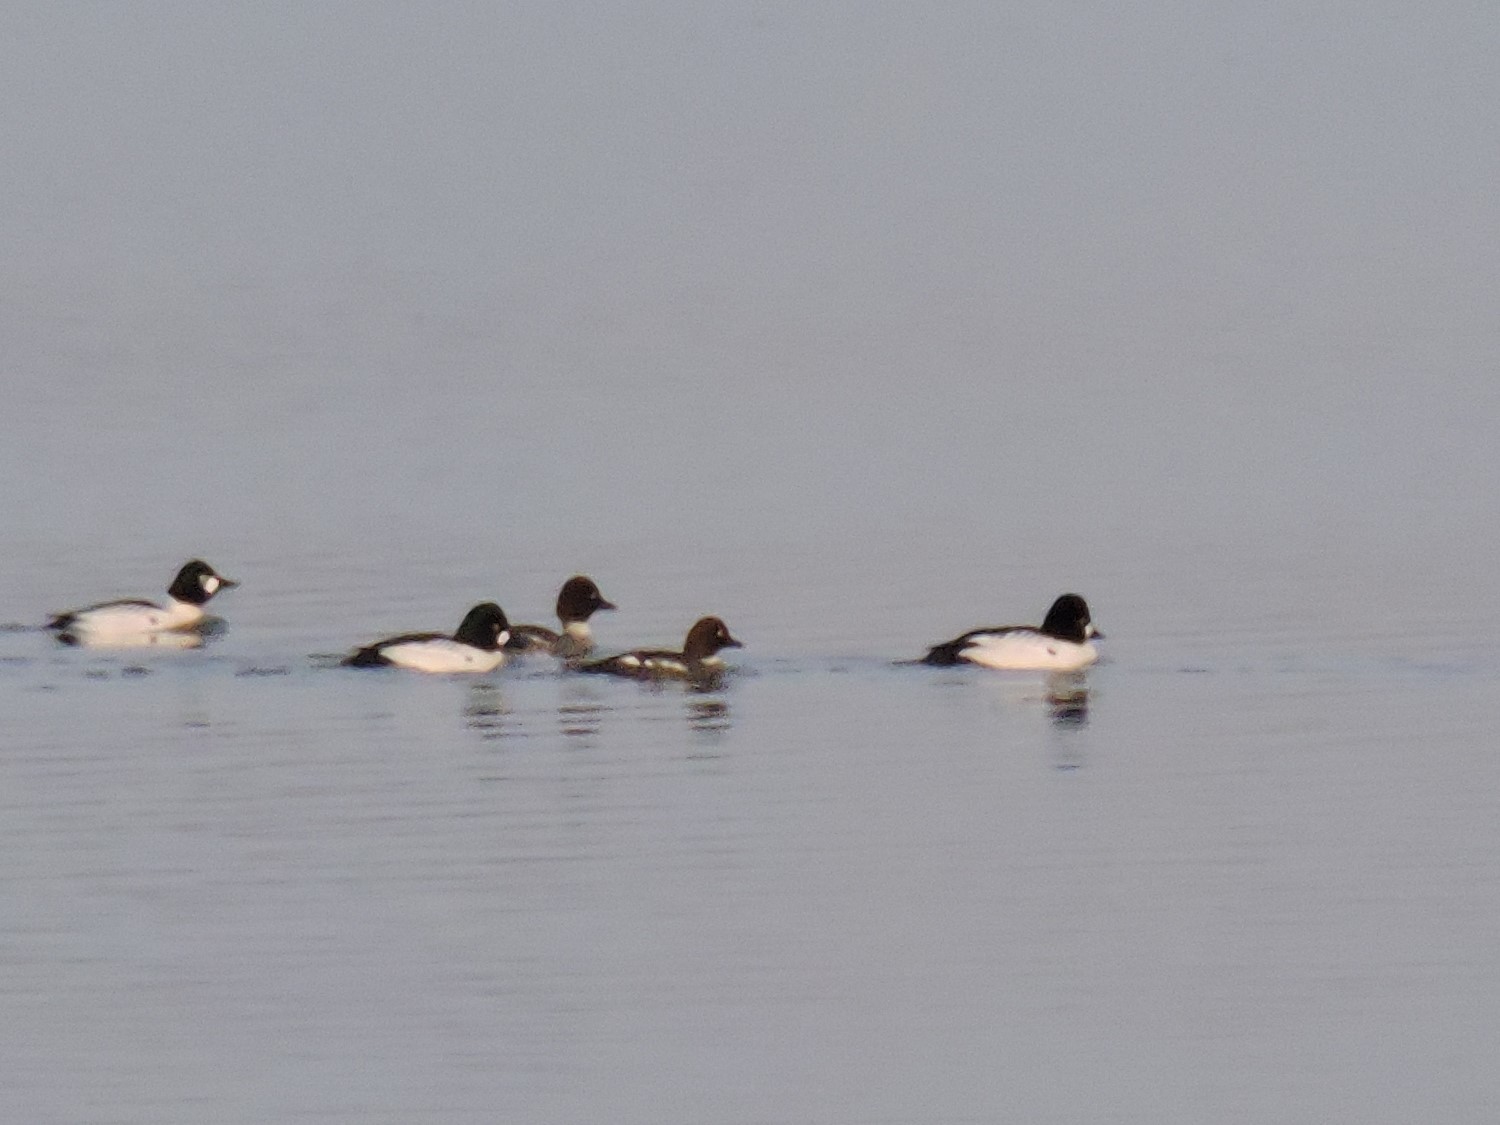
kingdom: Animalia
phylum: Chordata
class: Aves
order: Anseriformes
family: Anatidae
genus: Bucephala
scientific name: Bucephala clangula
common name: Common goldeneye
